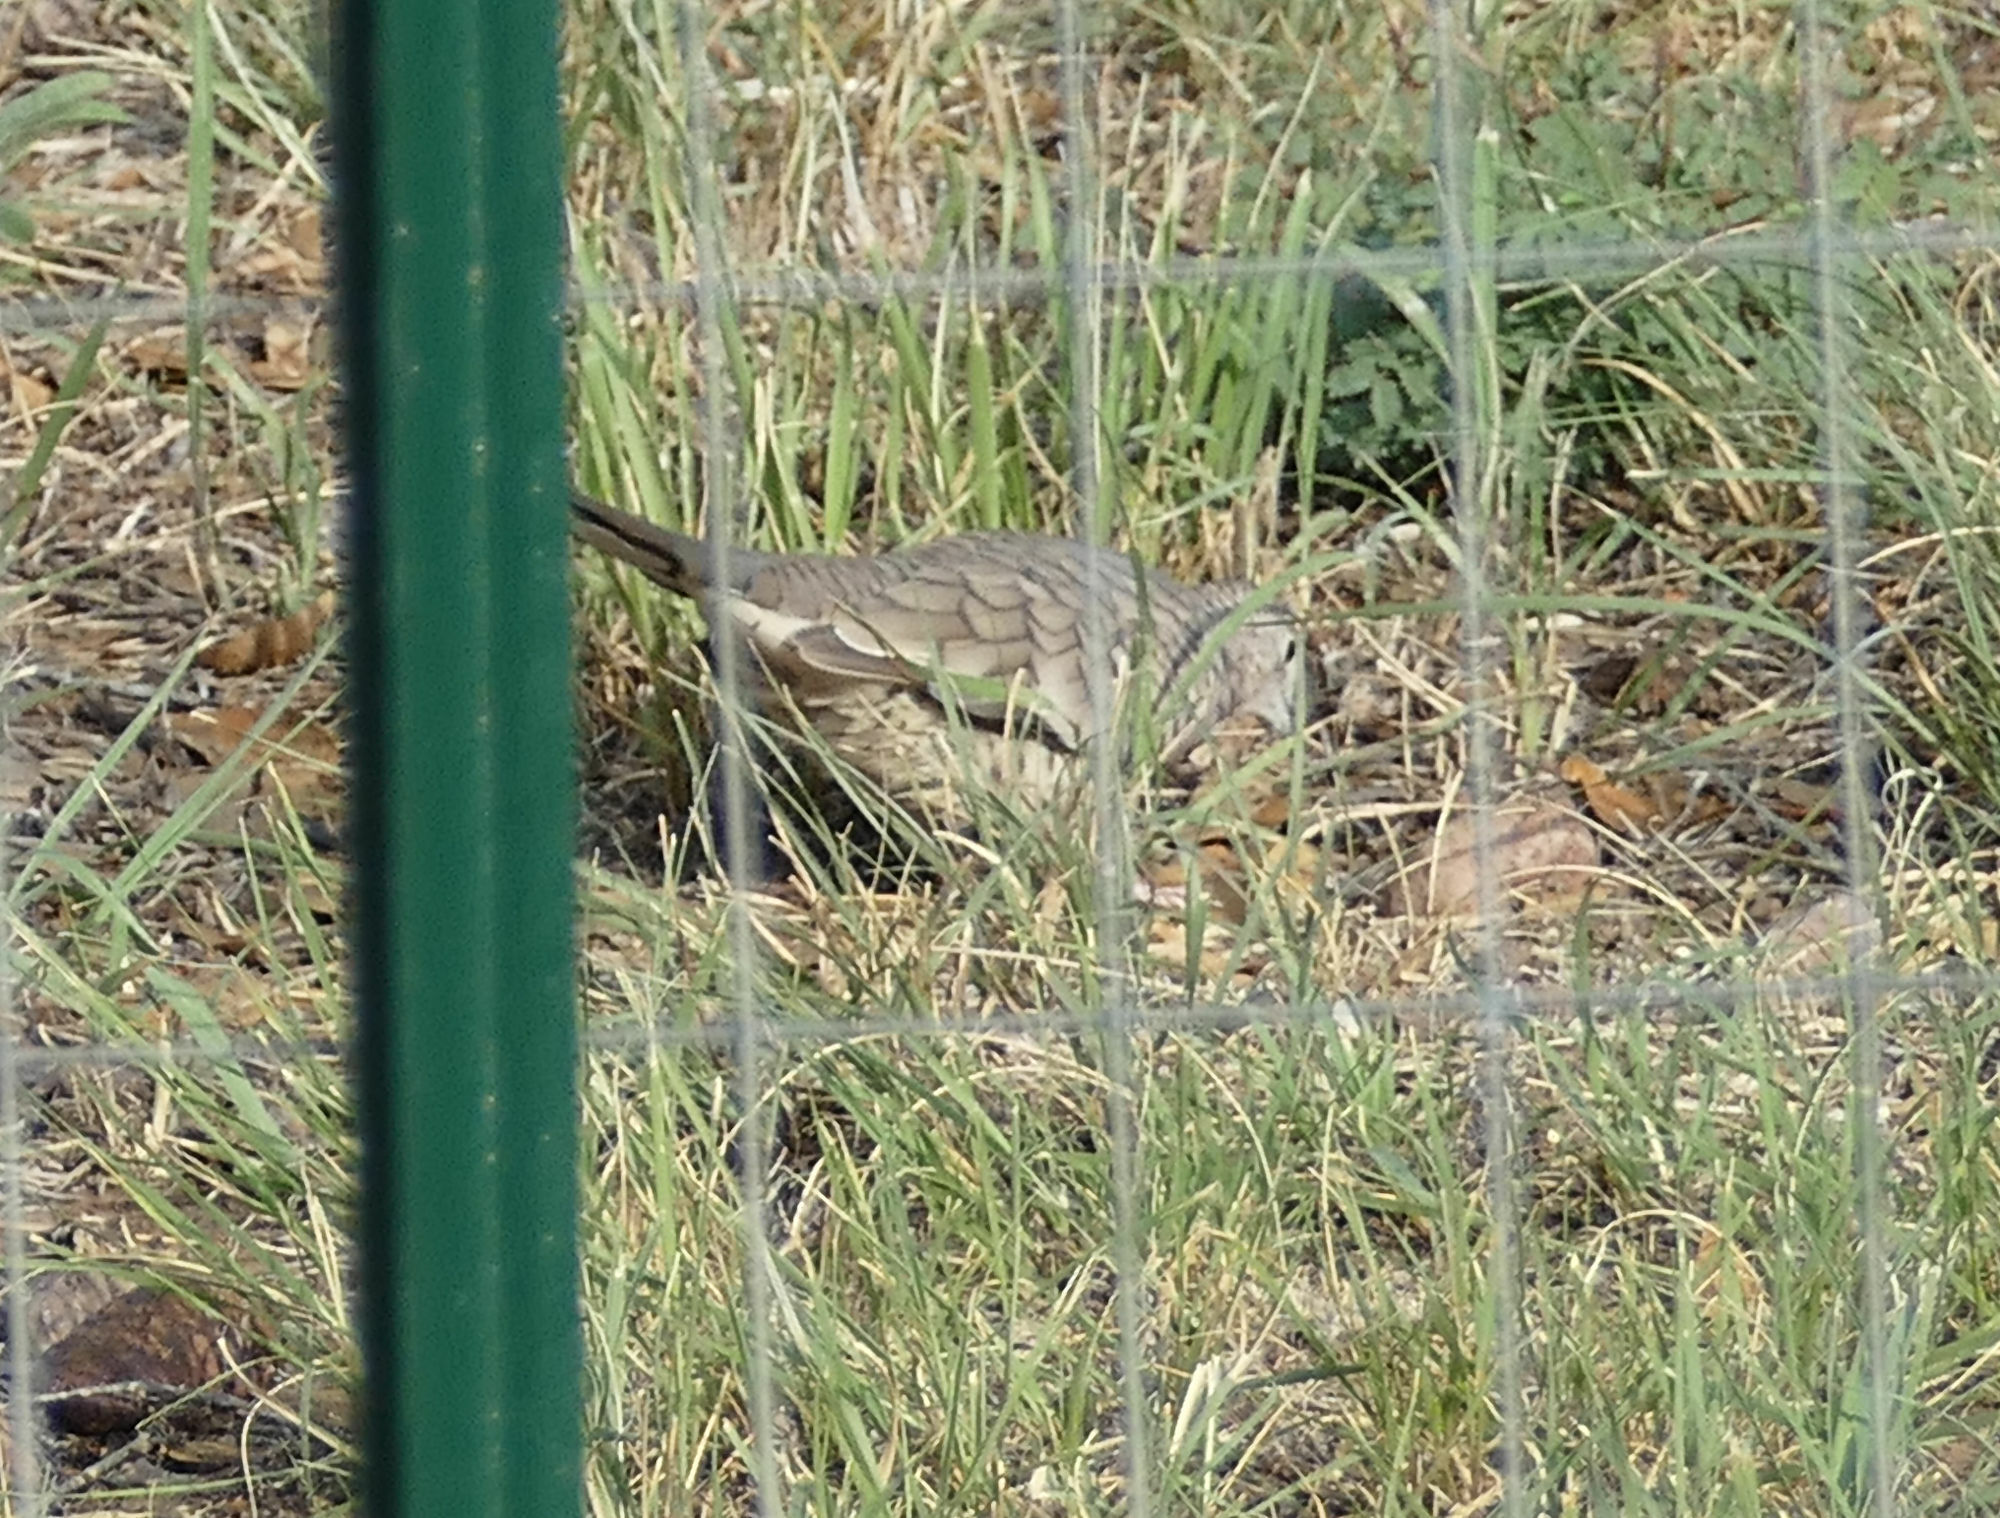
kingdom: Animalia
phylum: Chordata
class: Aves
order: Columbiformes
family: Columbidae
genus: Columbina
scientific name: Columbina inca
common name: Inca dove
